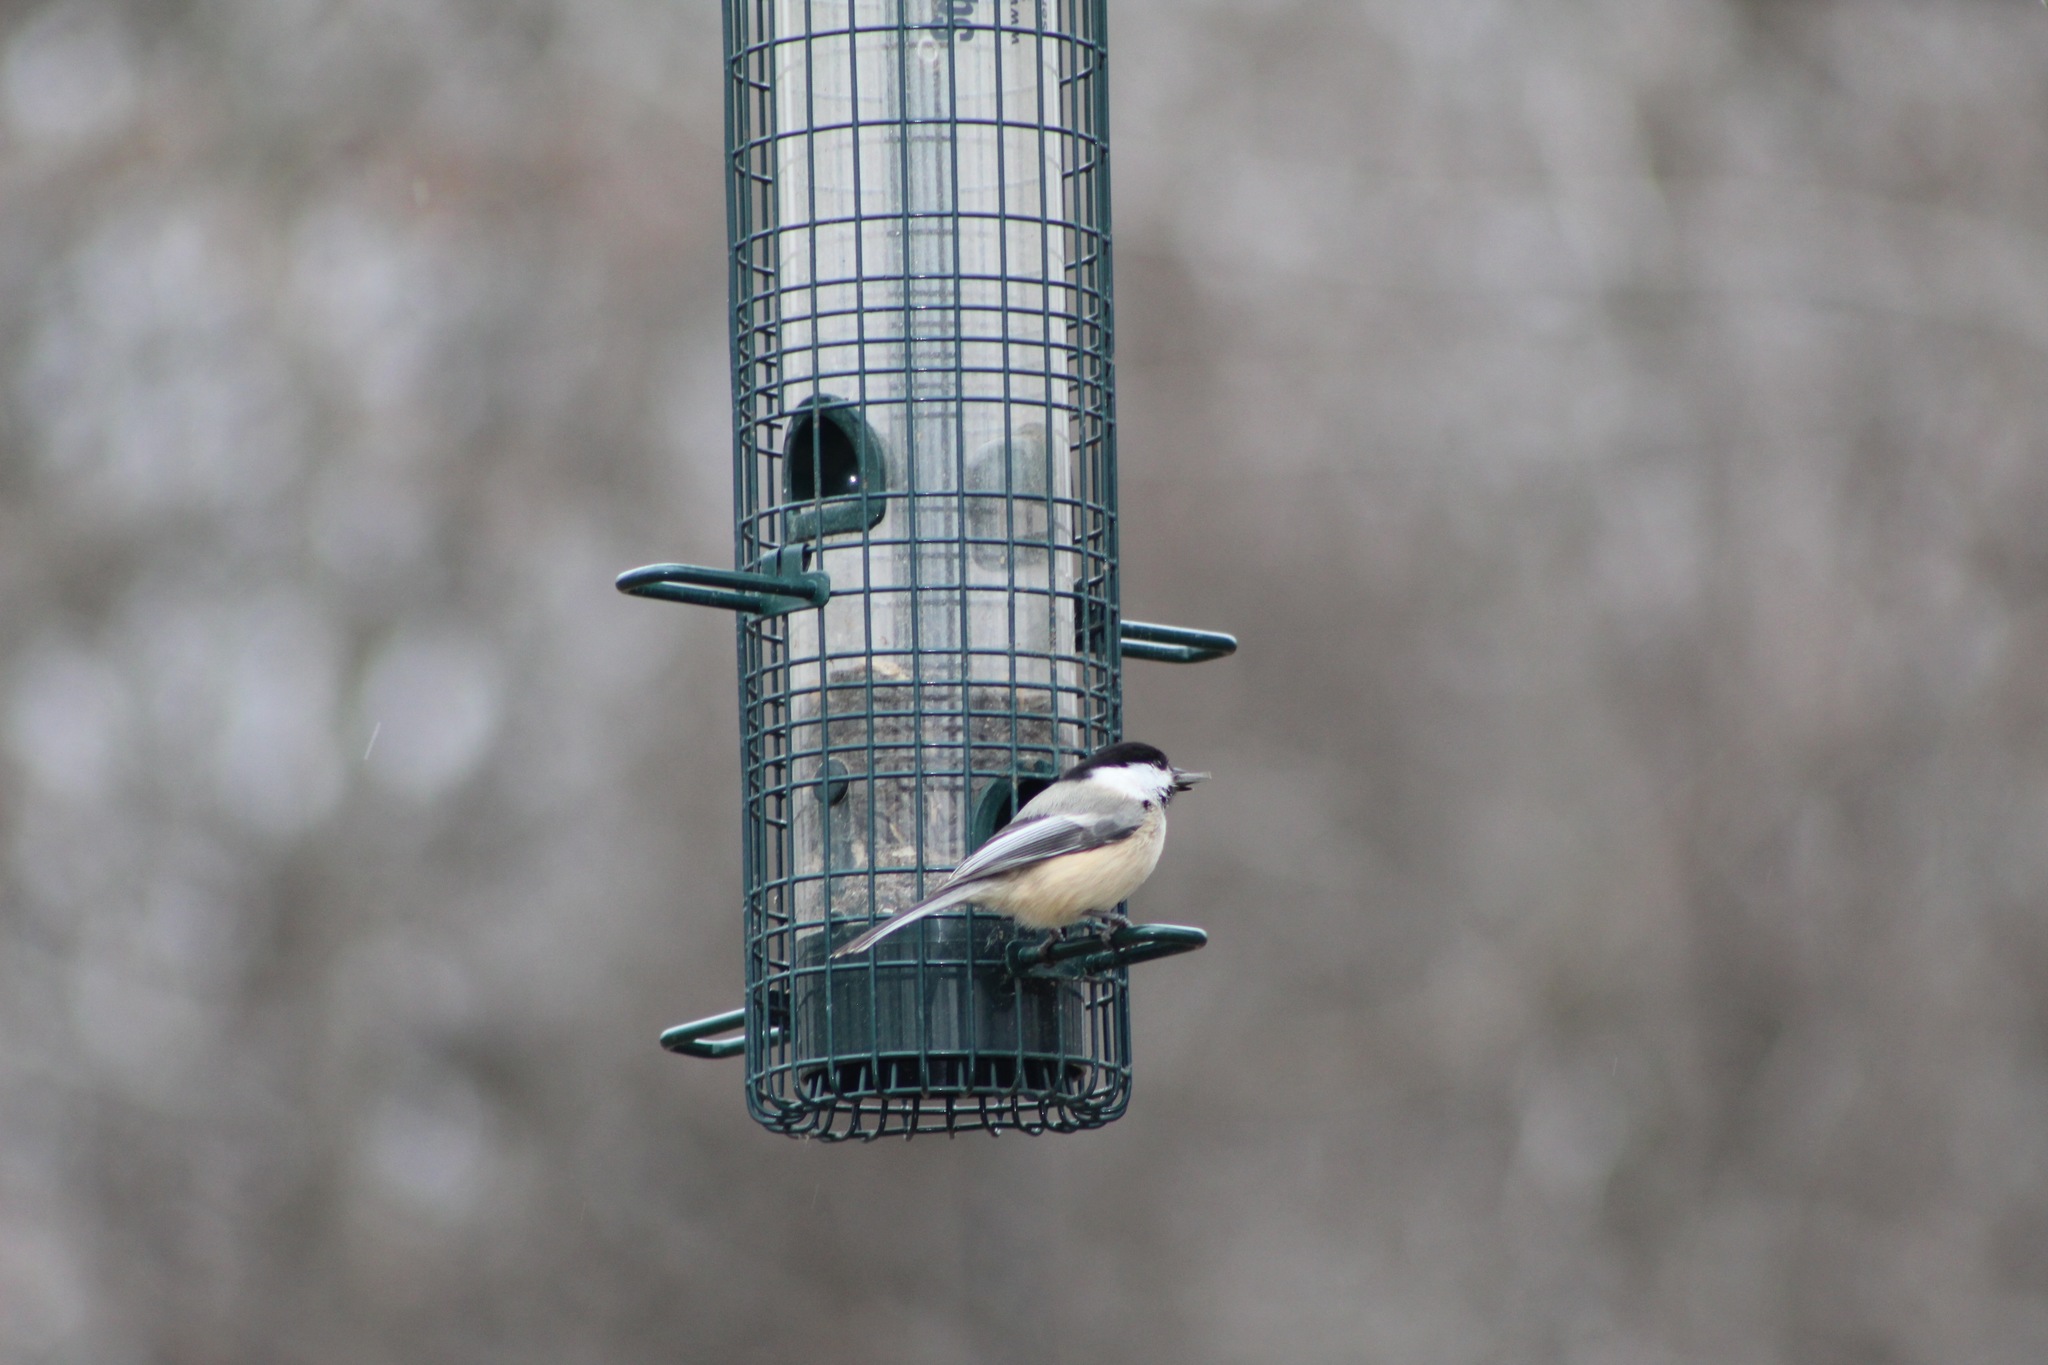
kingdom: Animalia
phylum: Chordata
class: Aves
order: Passeriformes
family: Paridae
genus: Poecile
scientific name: Poecile atricapillus
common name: Black-capped chickadee
